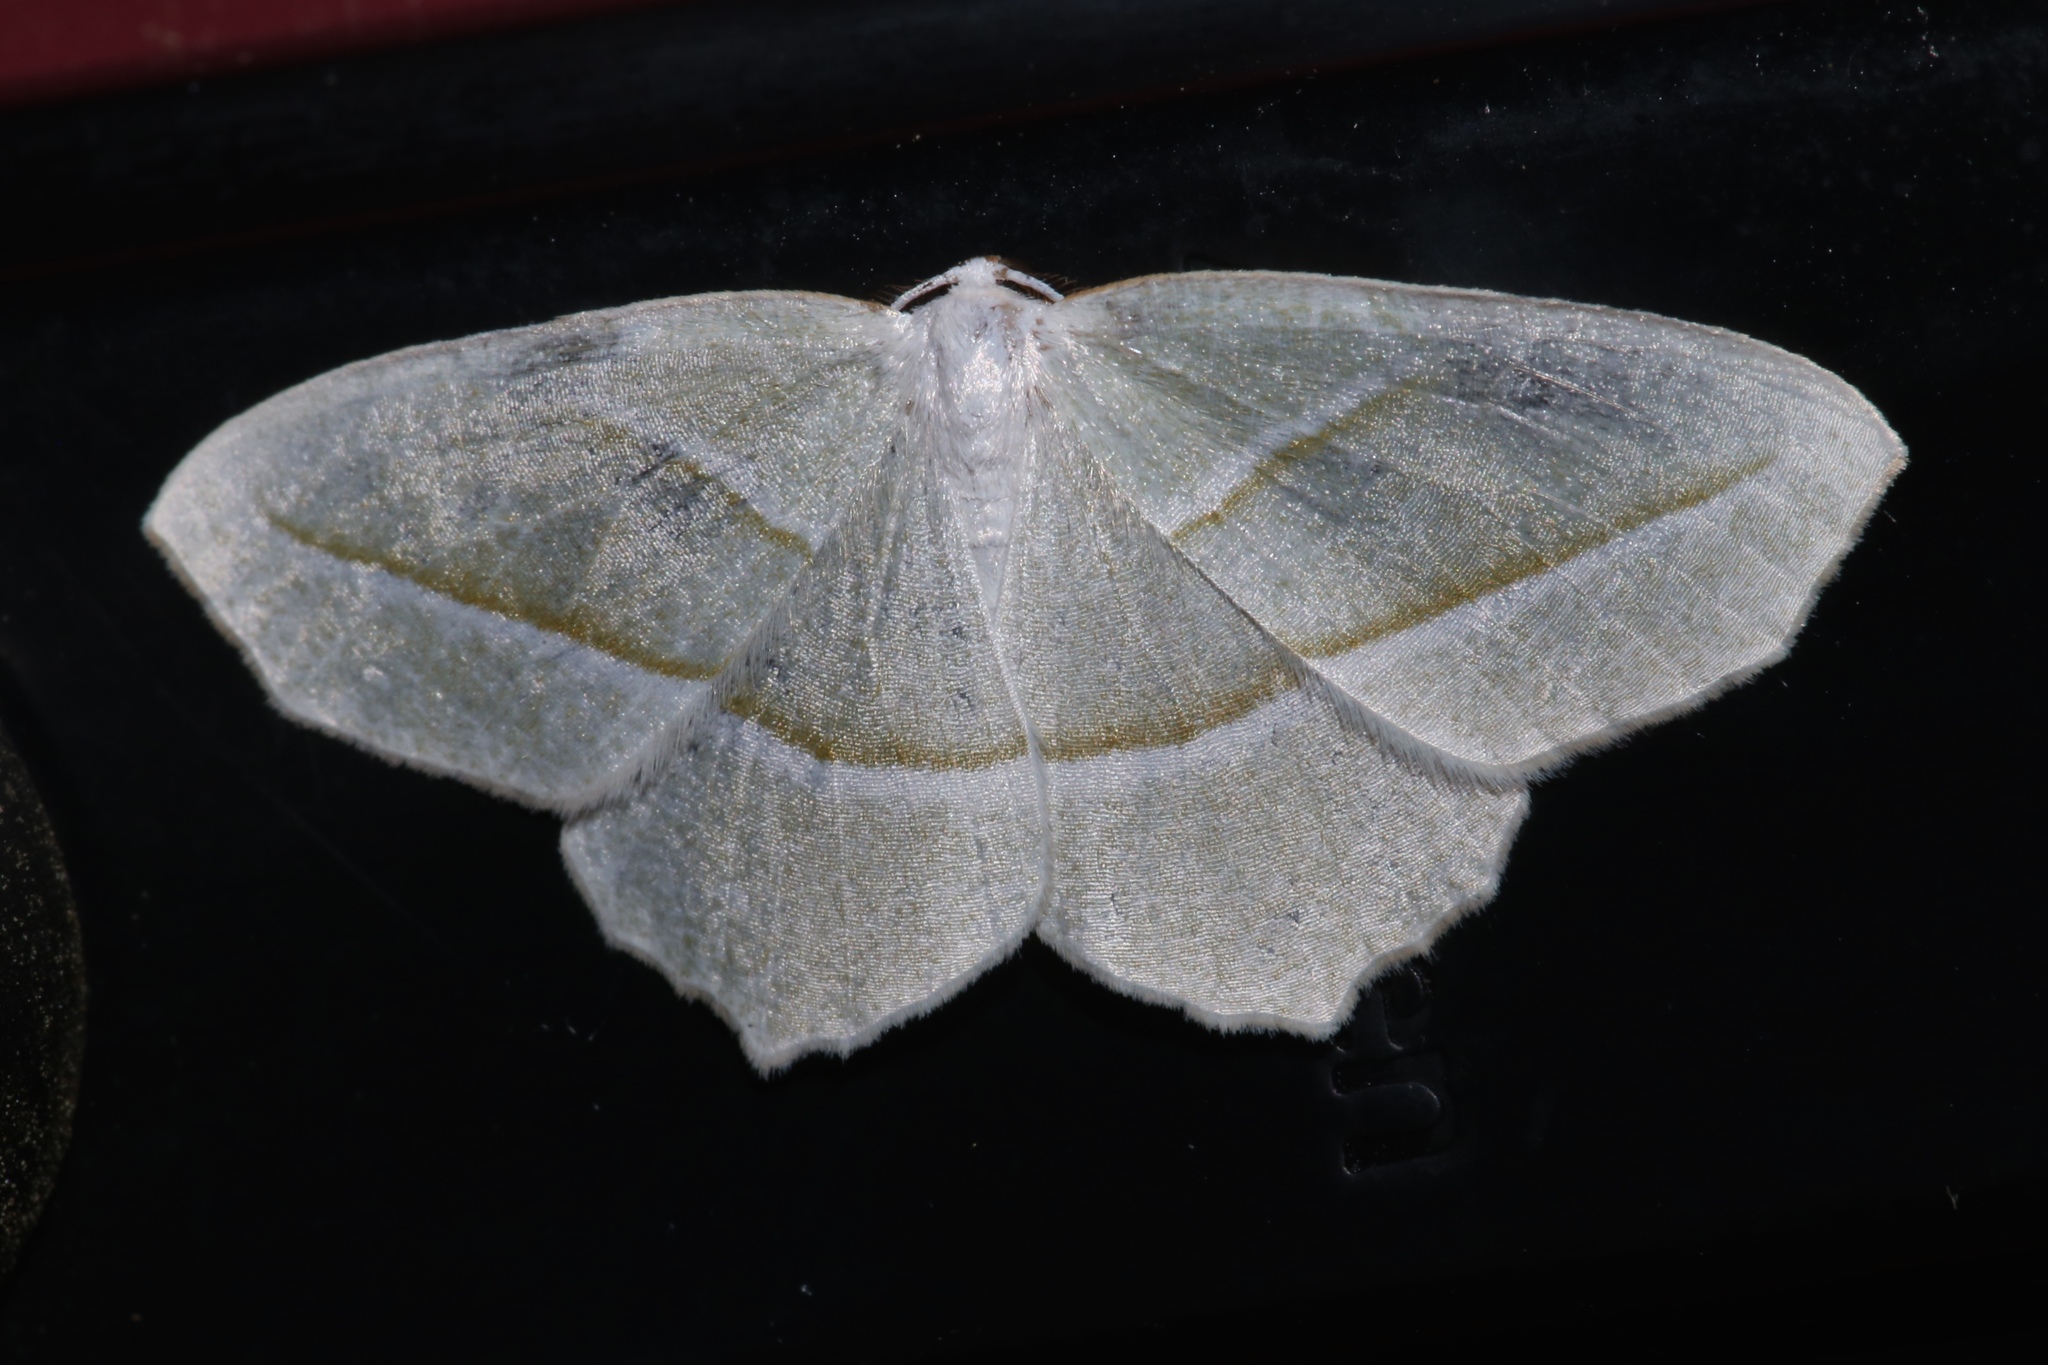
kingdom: Animalia
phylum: Arthropoda
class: Insecta
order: Lepidoptera
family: Geometridae
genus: Campaea
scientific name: Campaea perlata
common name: Fringed looper
